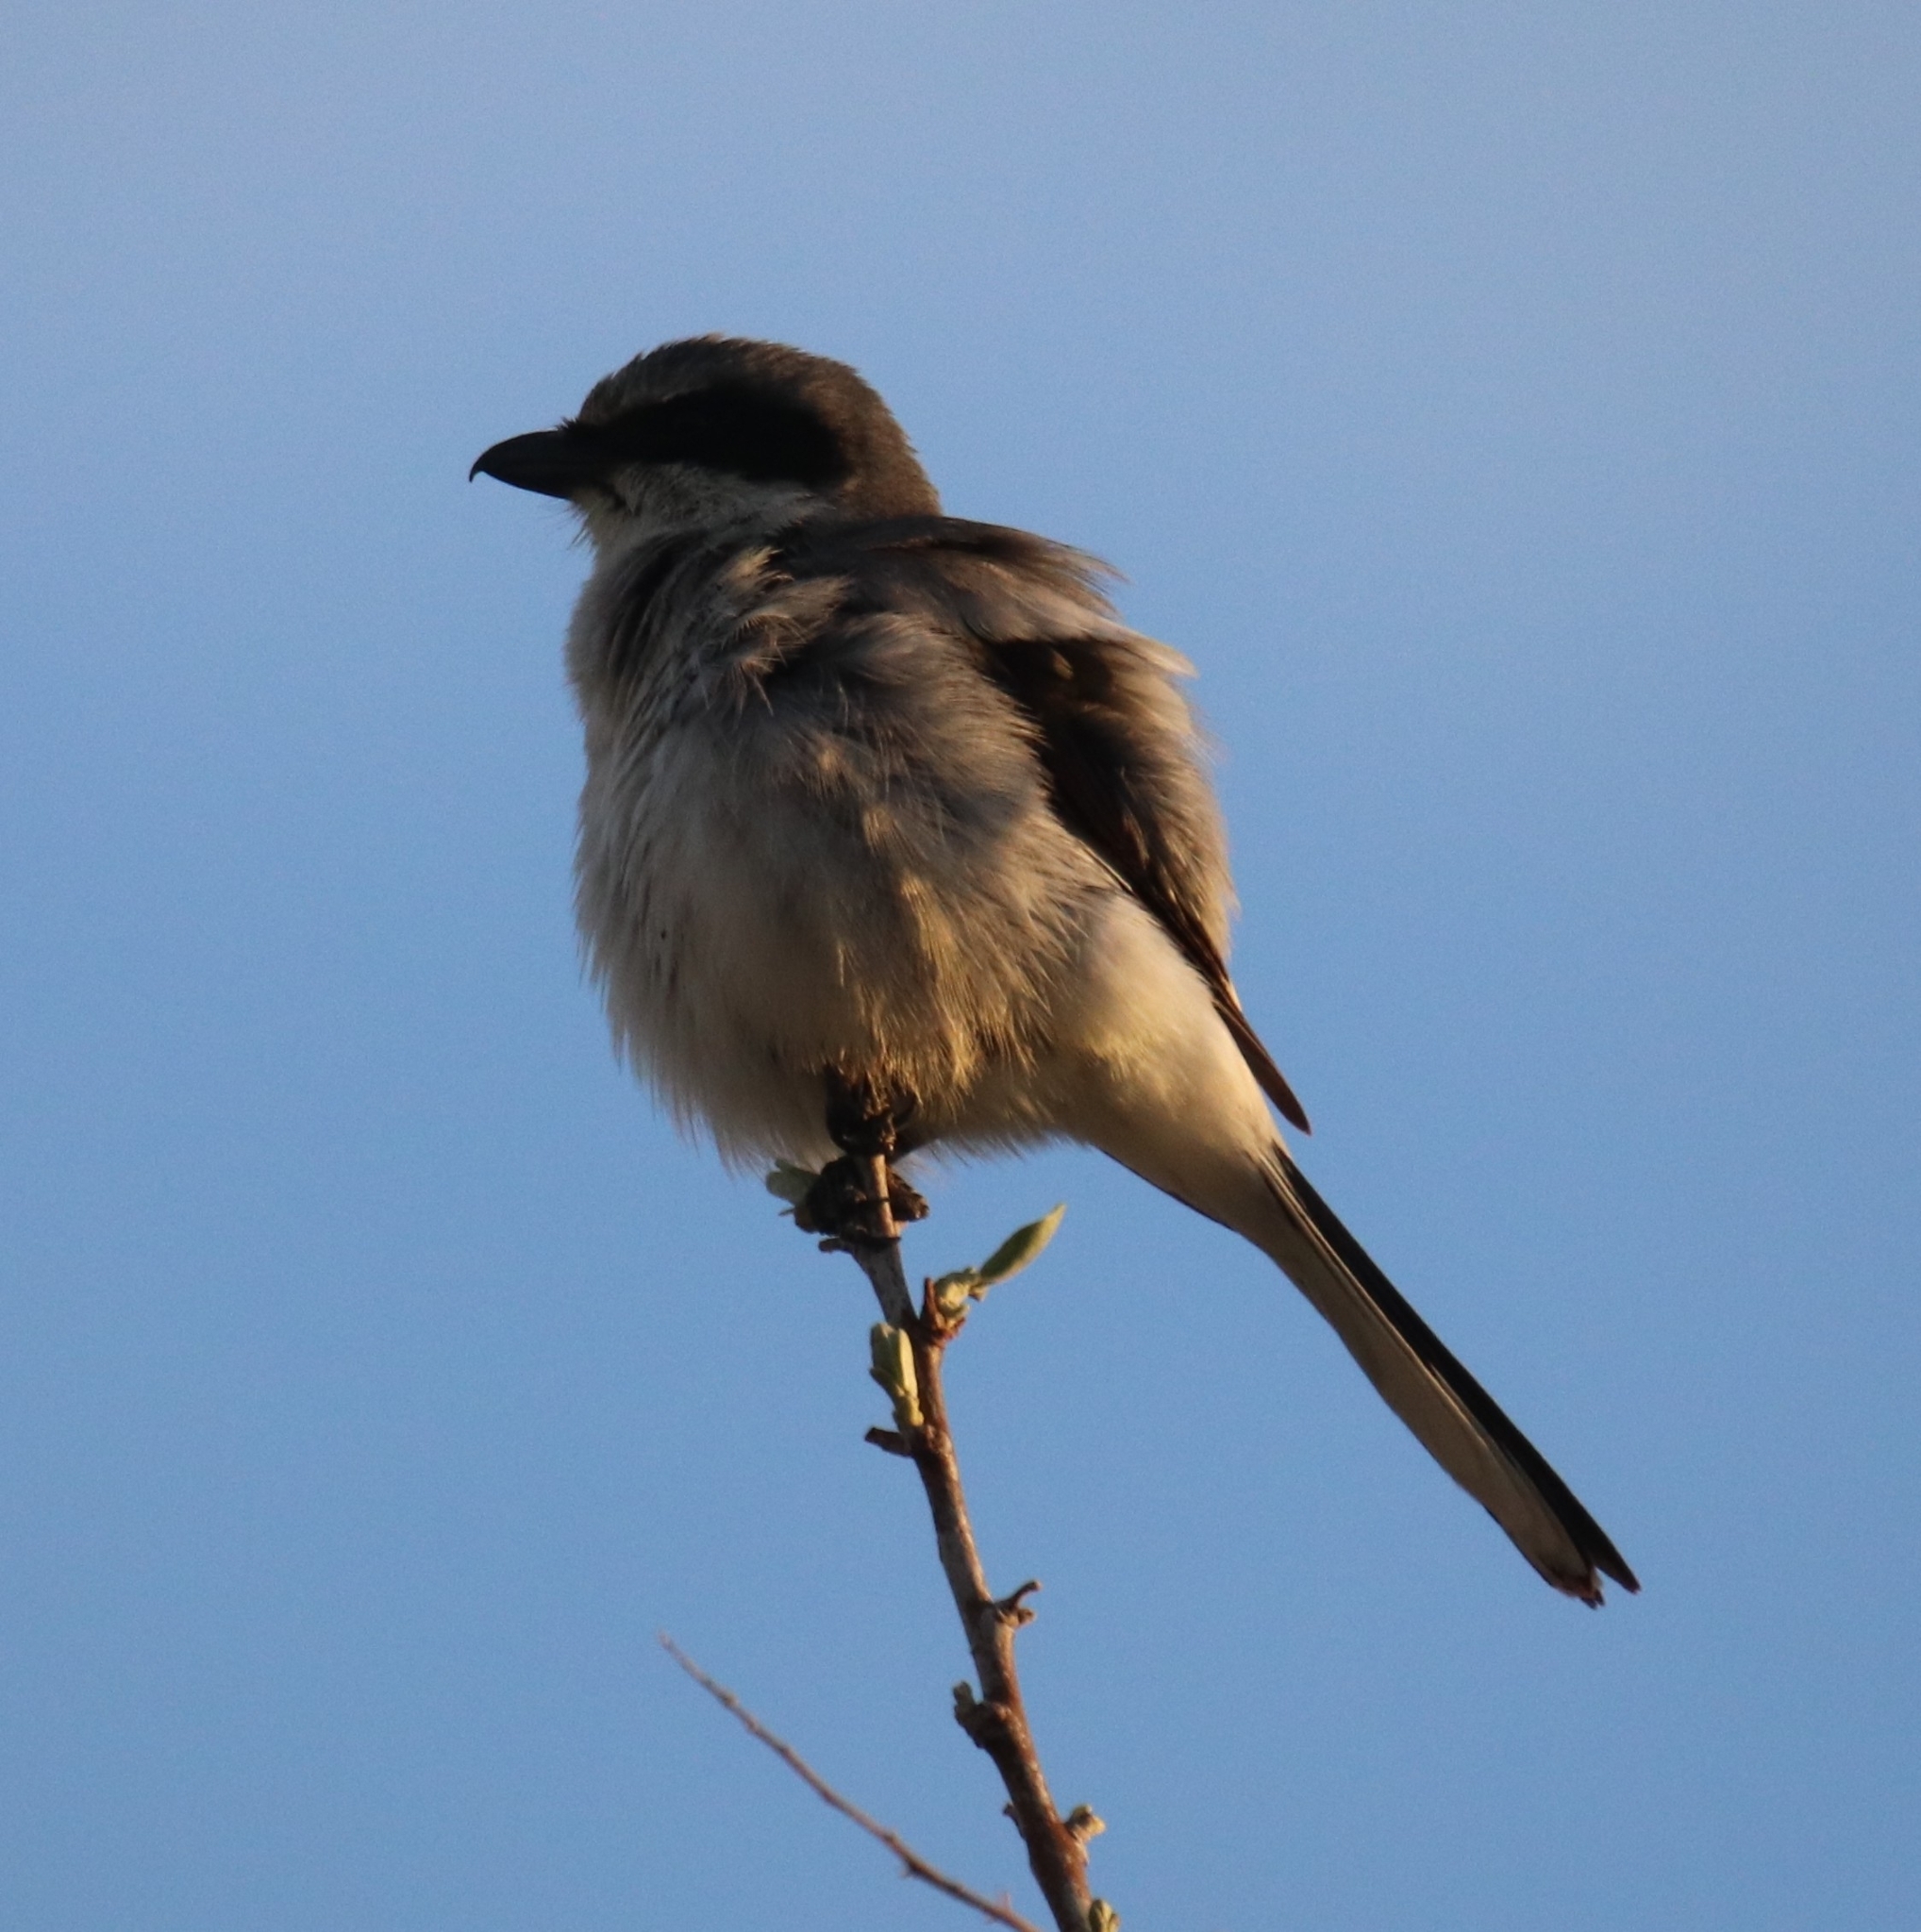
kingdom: Animalia
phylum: Chordata
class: Aves
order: Passeriformes
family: Laniidae
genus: Lanius
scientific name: Lanius ludovicianus
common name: Loggerhead shrike
